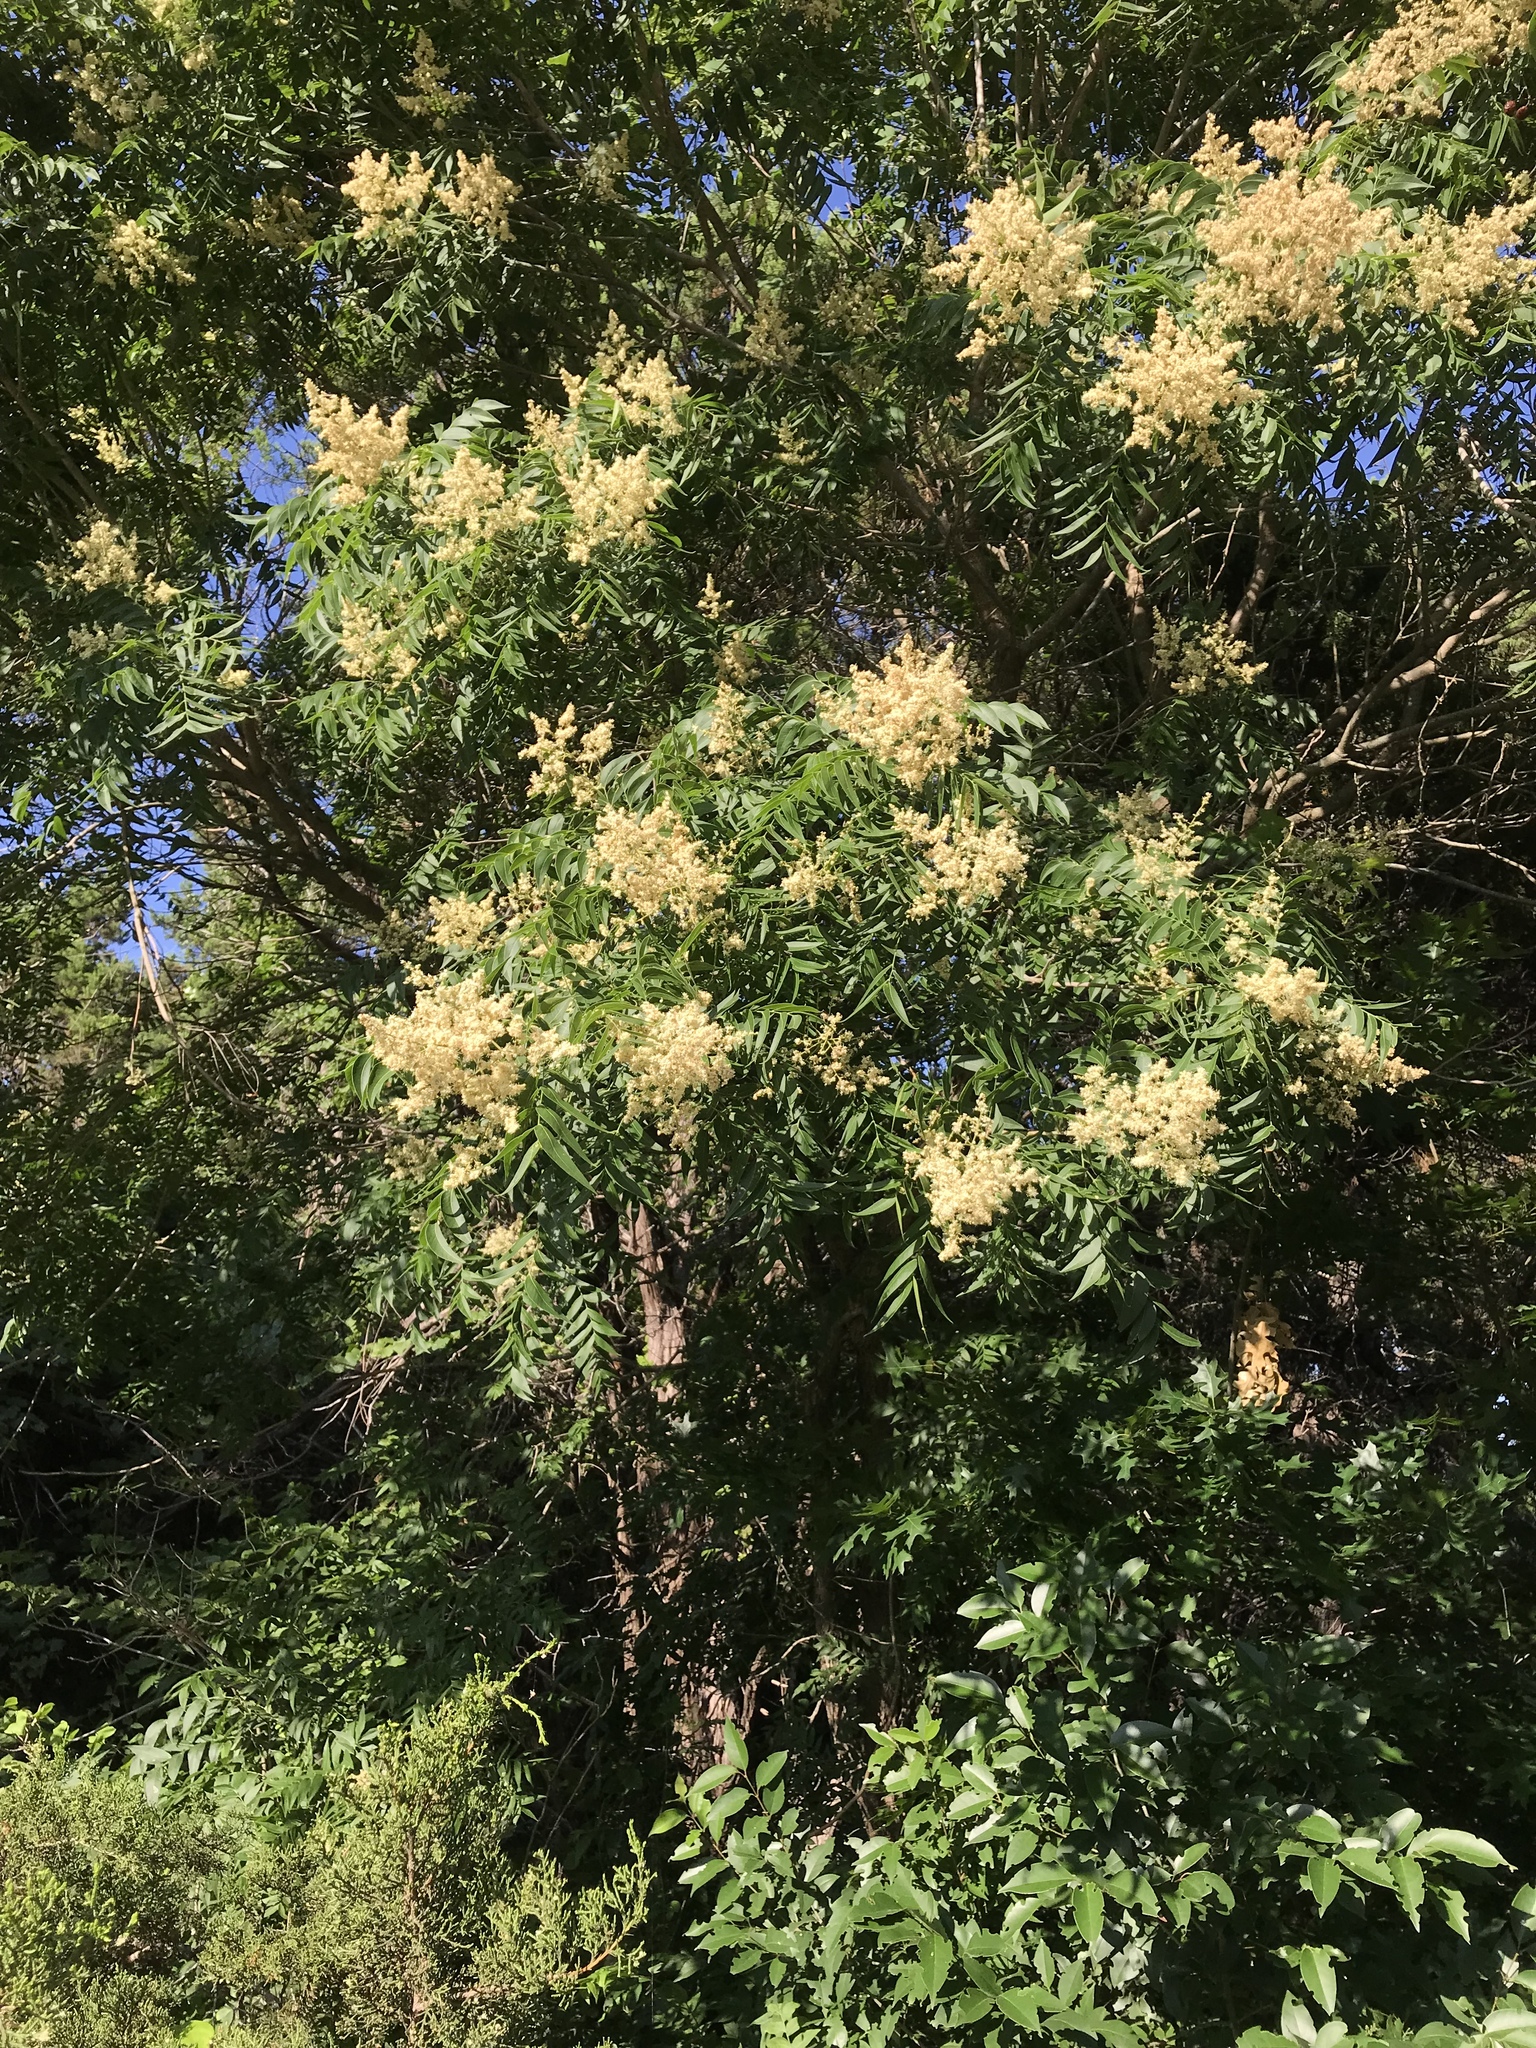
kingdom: Plantae
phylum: Tracheophyta
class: Magnoliopsida
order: Sapindales
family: Sapindaceae
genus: Sapindus
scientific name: Sapindus drummondii
